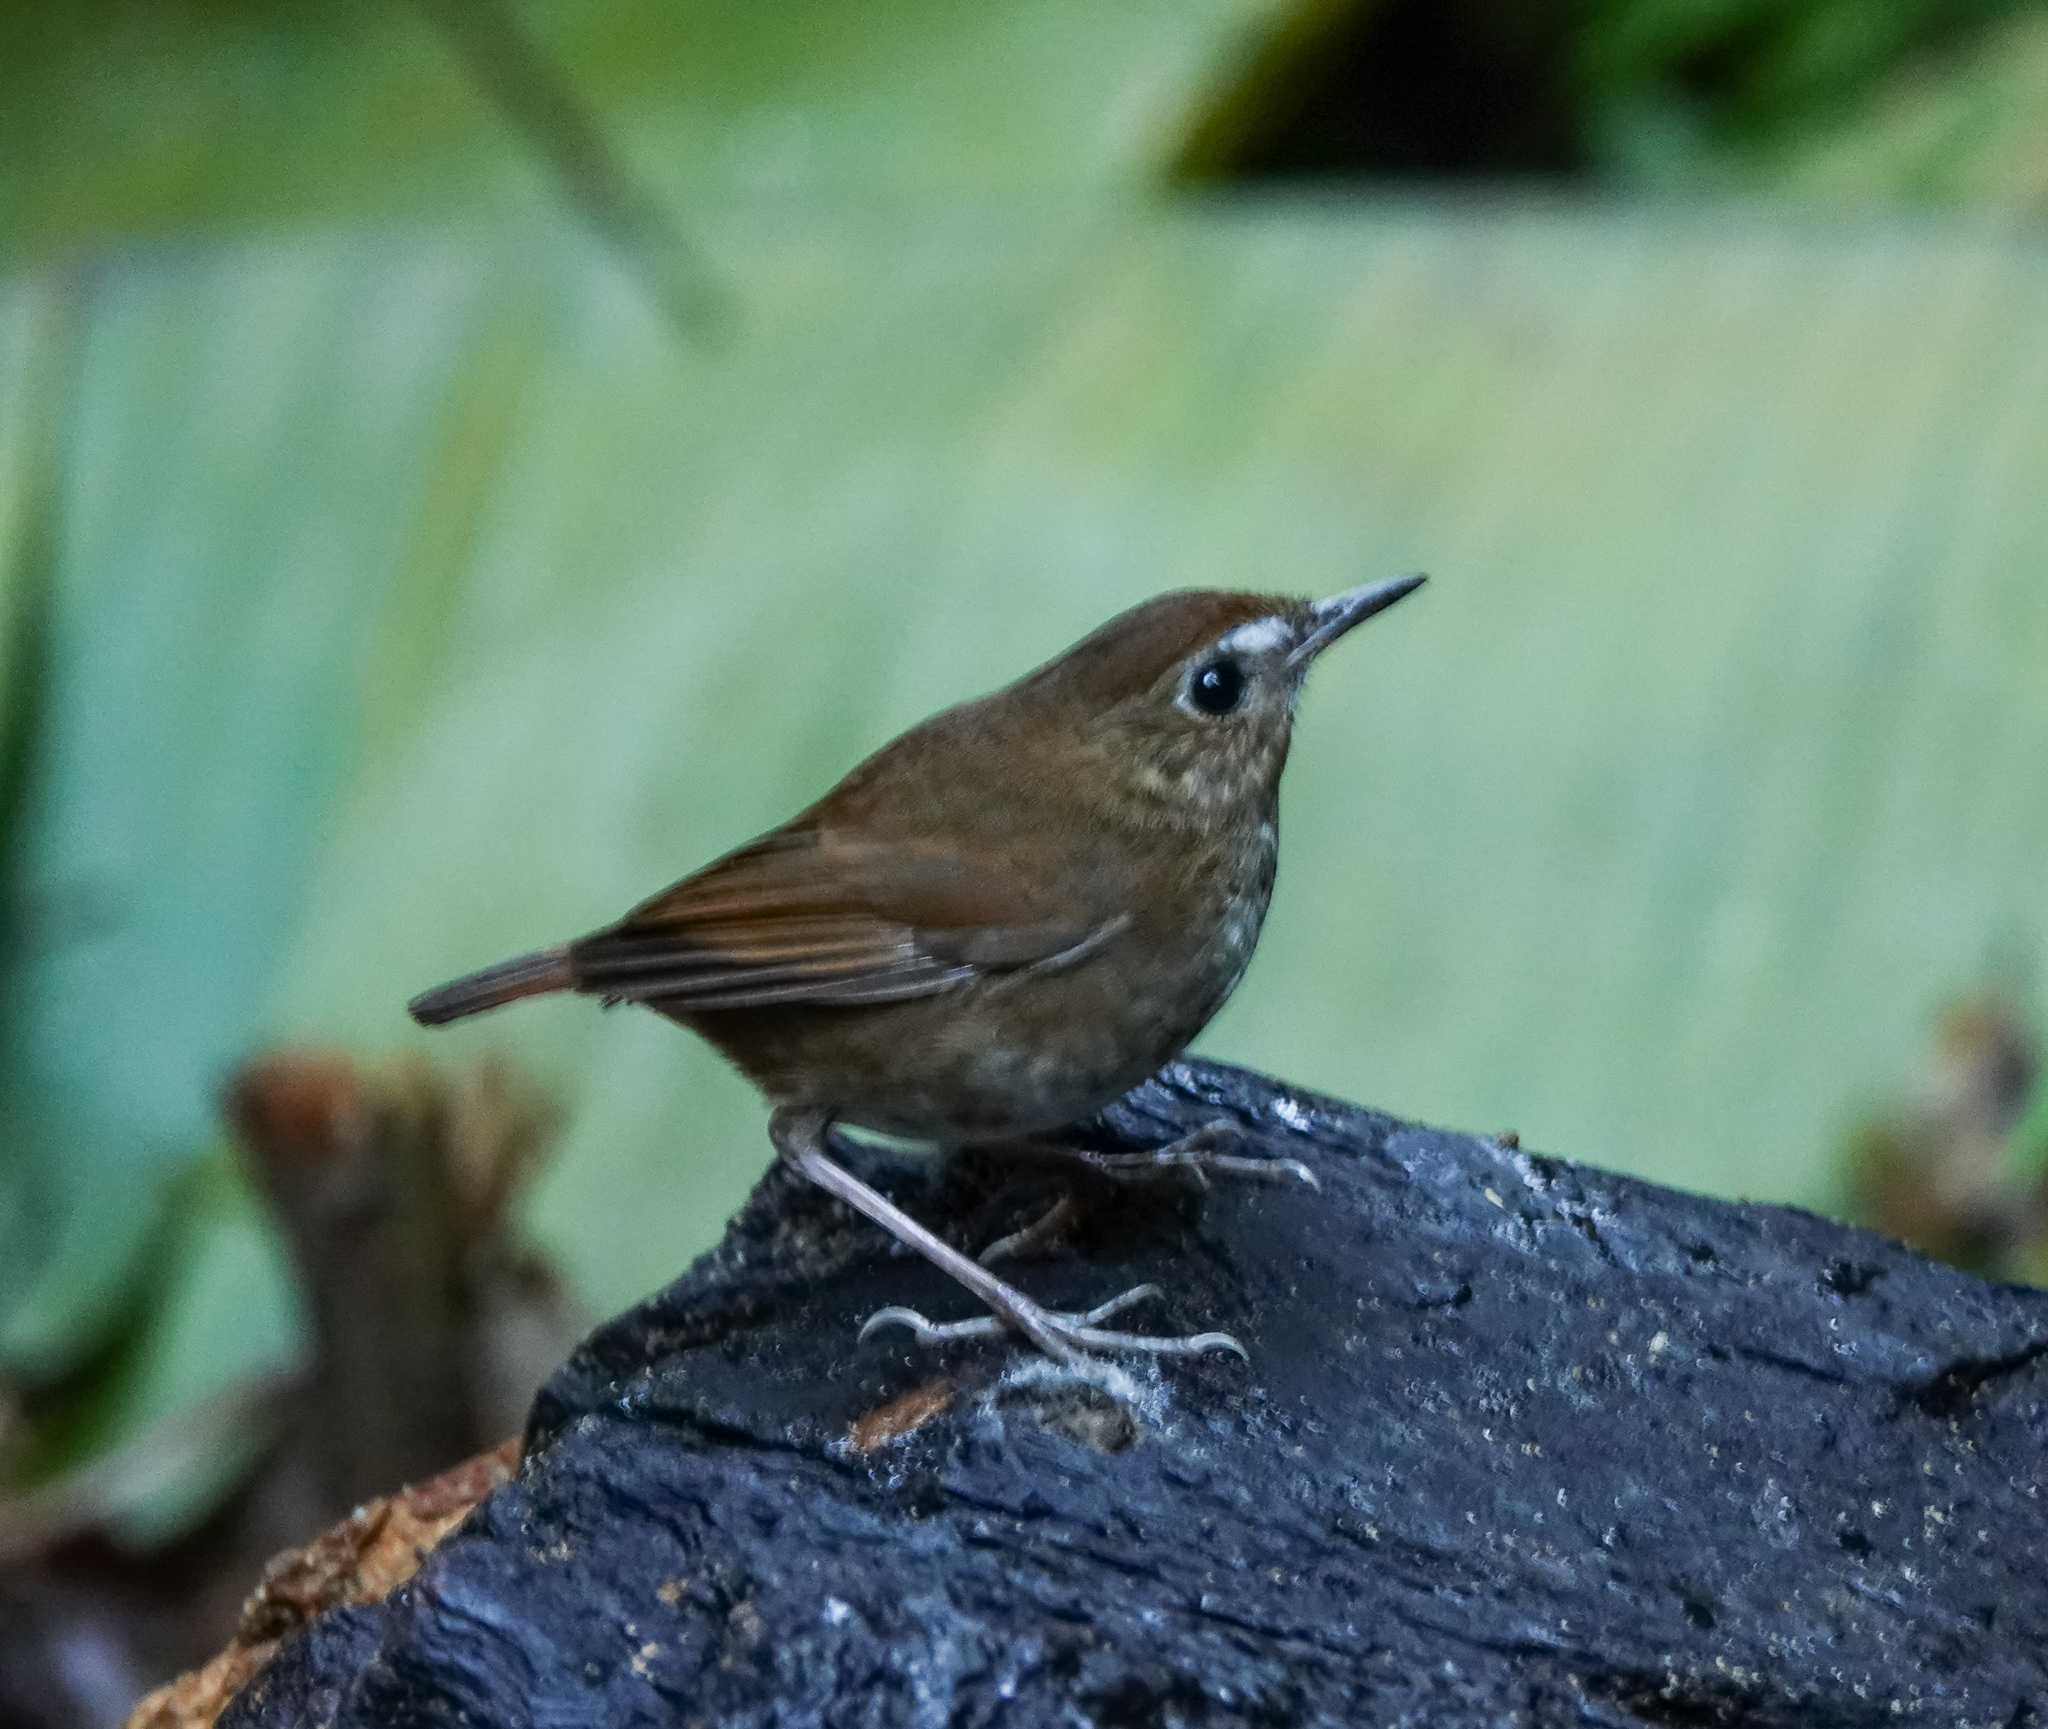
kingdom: Animalia
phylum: Chordata
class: Aves
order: Passeriformes
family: Muscicapidae
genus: Brachypteryx
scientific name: Brachypteryx leucophris
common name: Lesser shortwing
